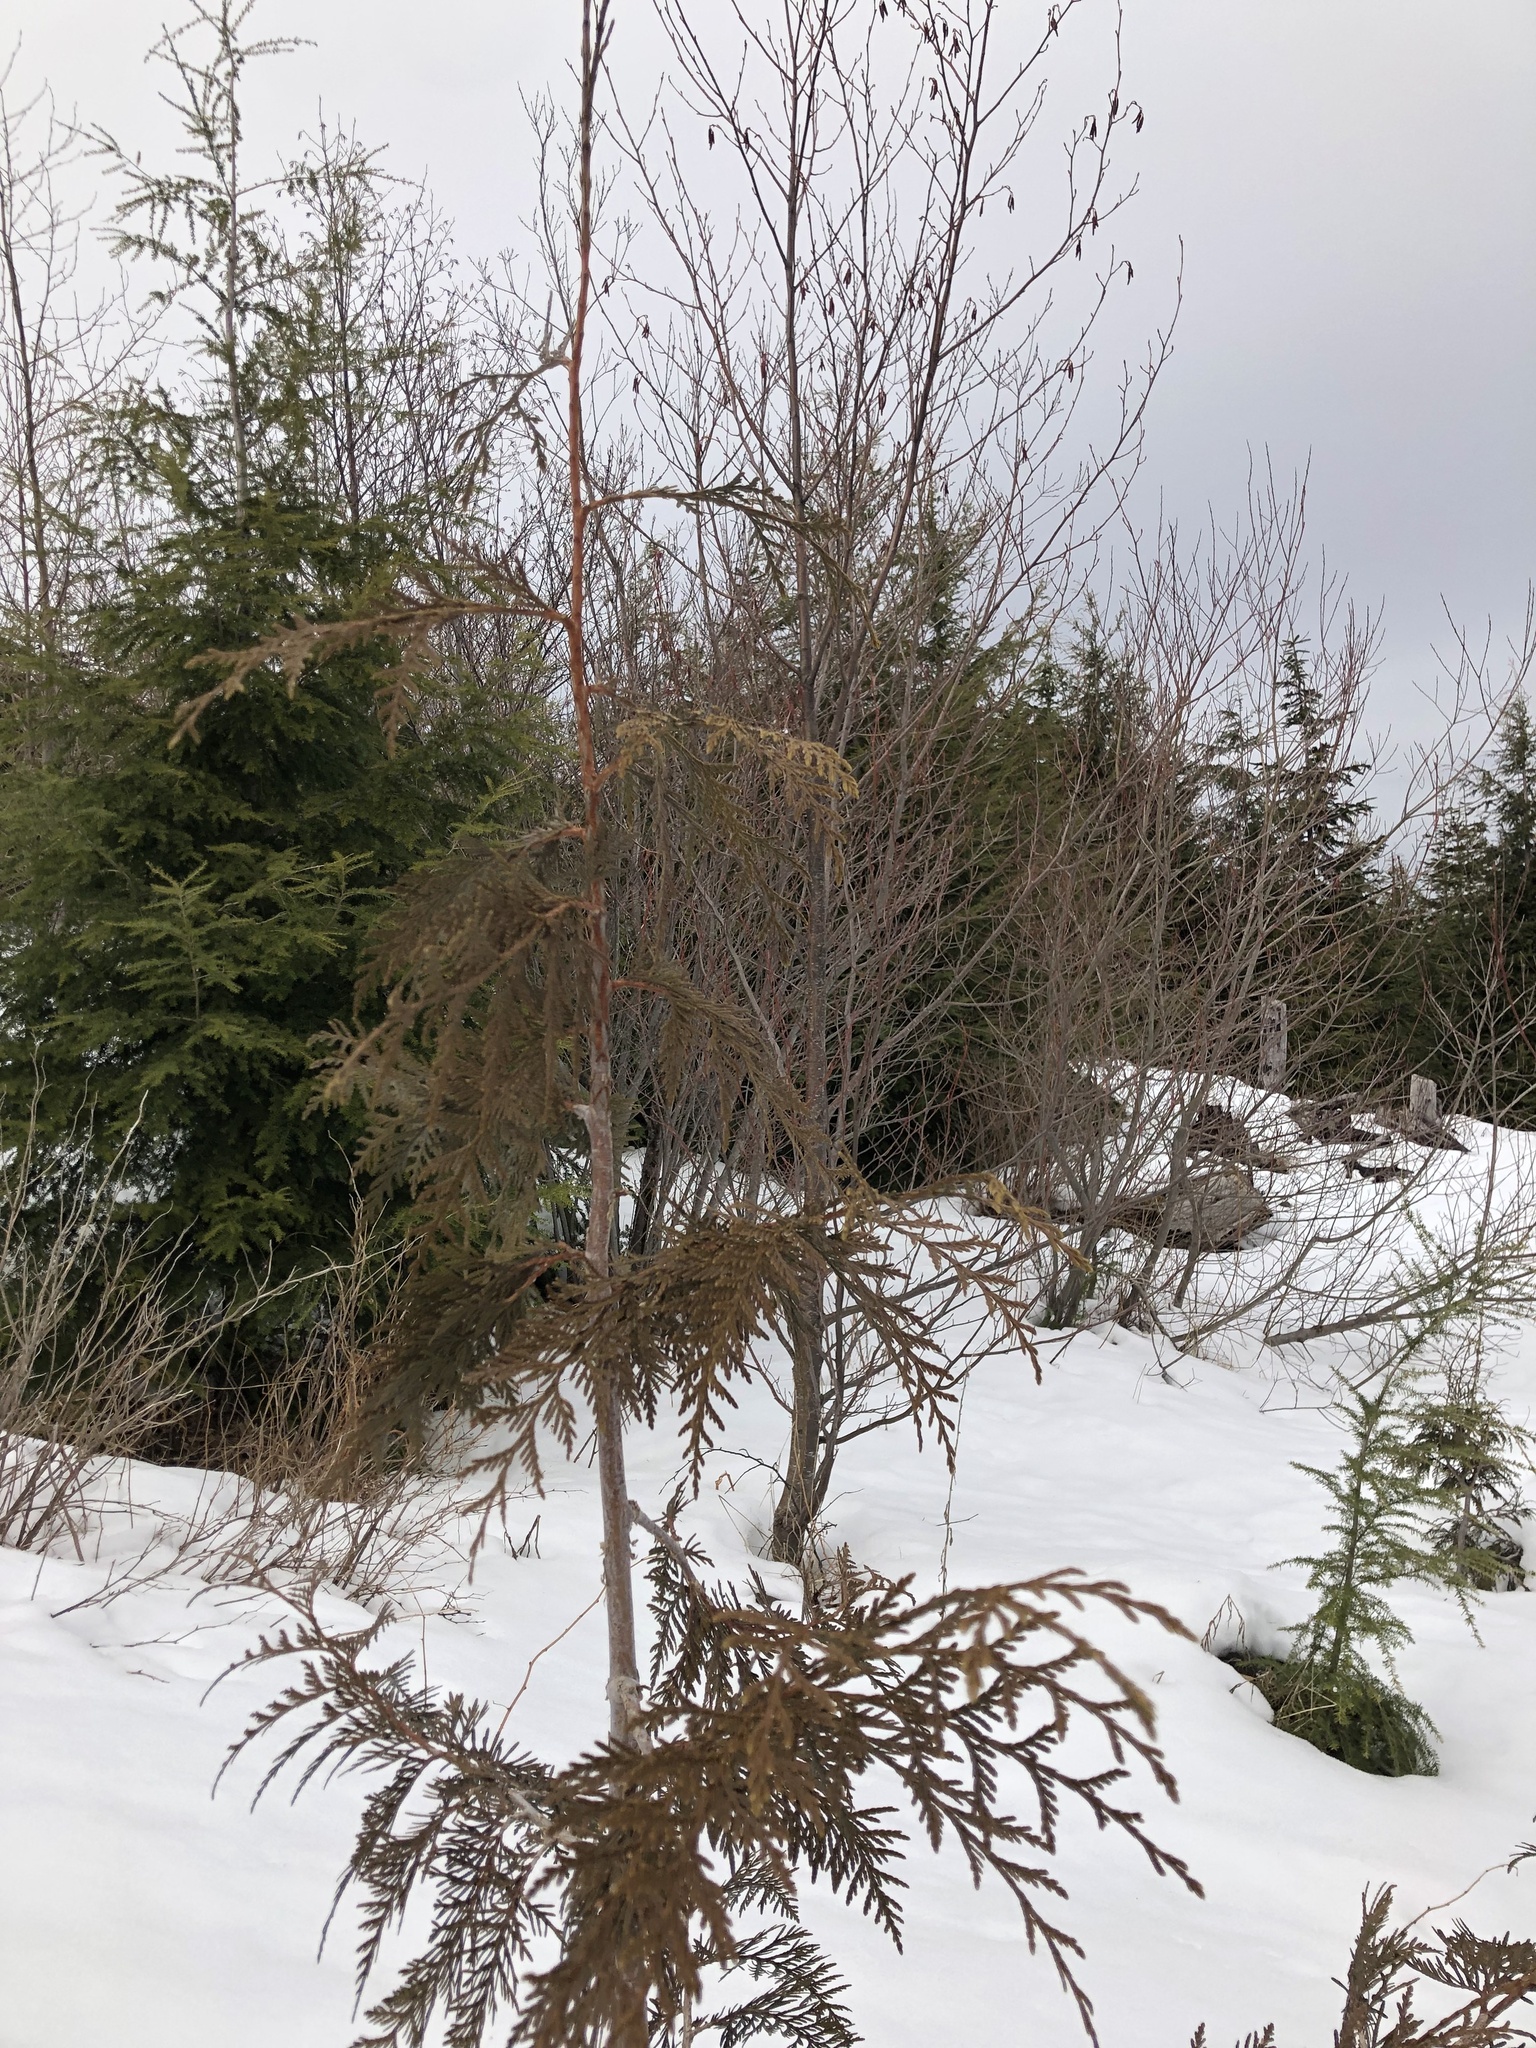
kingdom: Plantae
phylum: Tracheophyta
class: Pinopsida
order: Pinales
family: Cupressaceae
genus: Thuja
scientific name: Thuja plicata
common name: Western red-cedar
